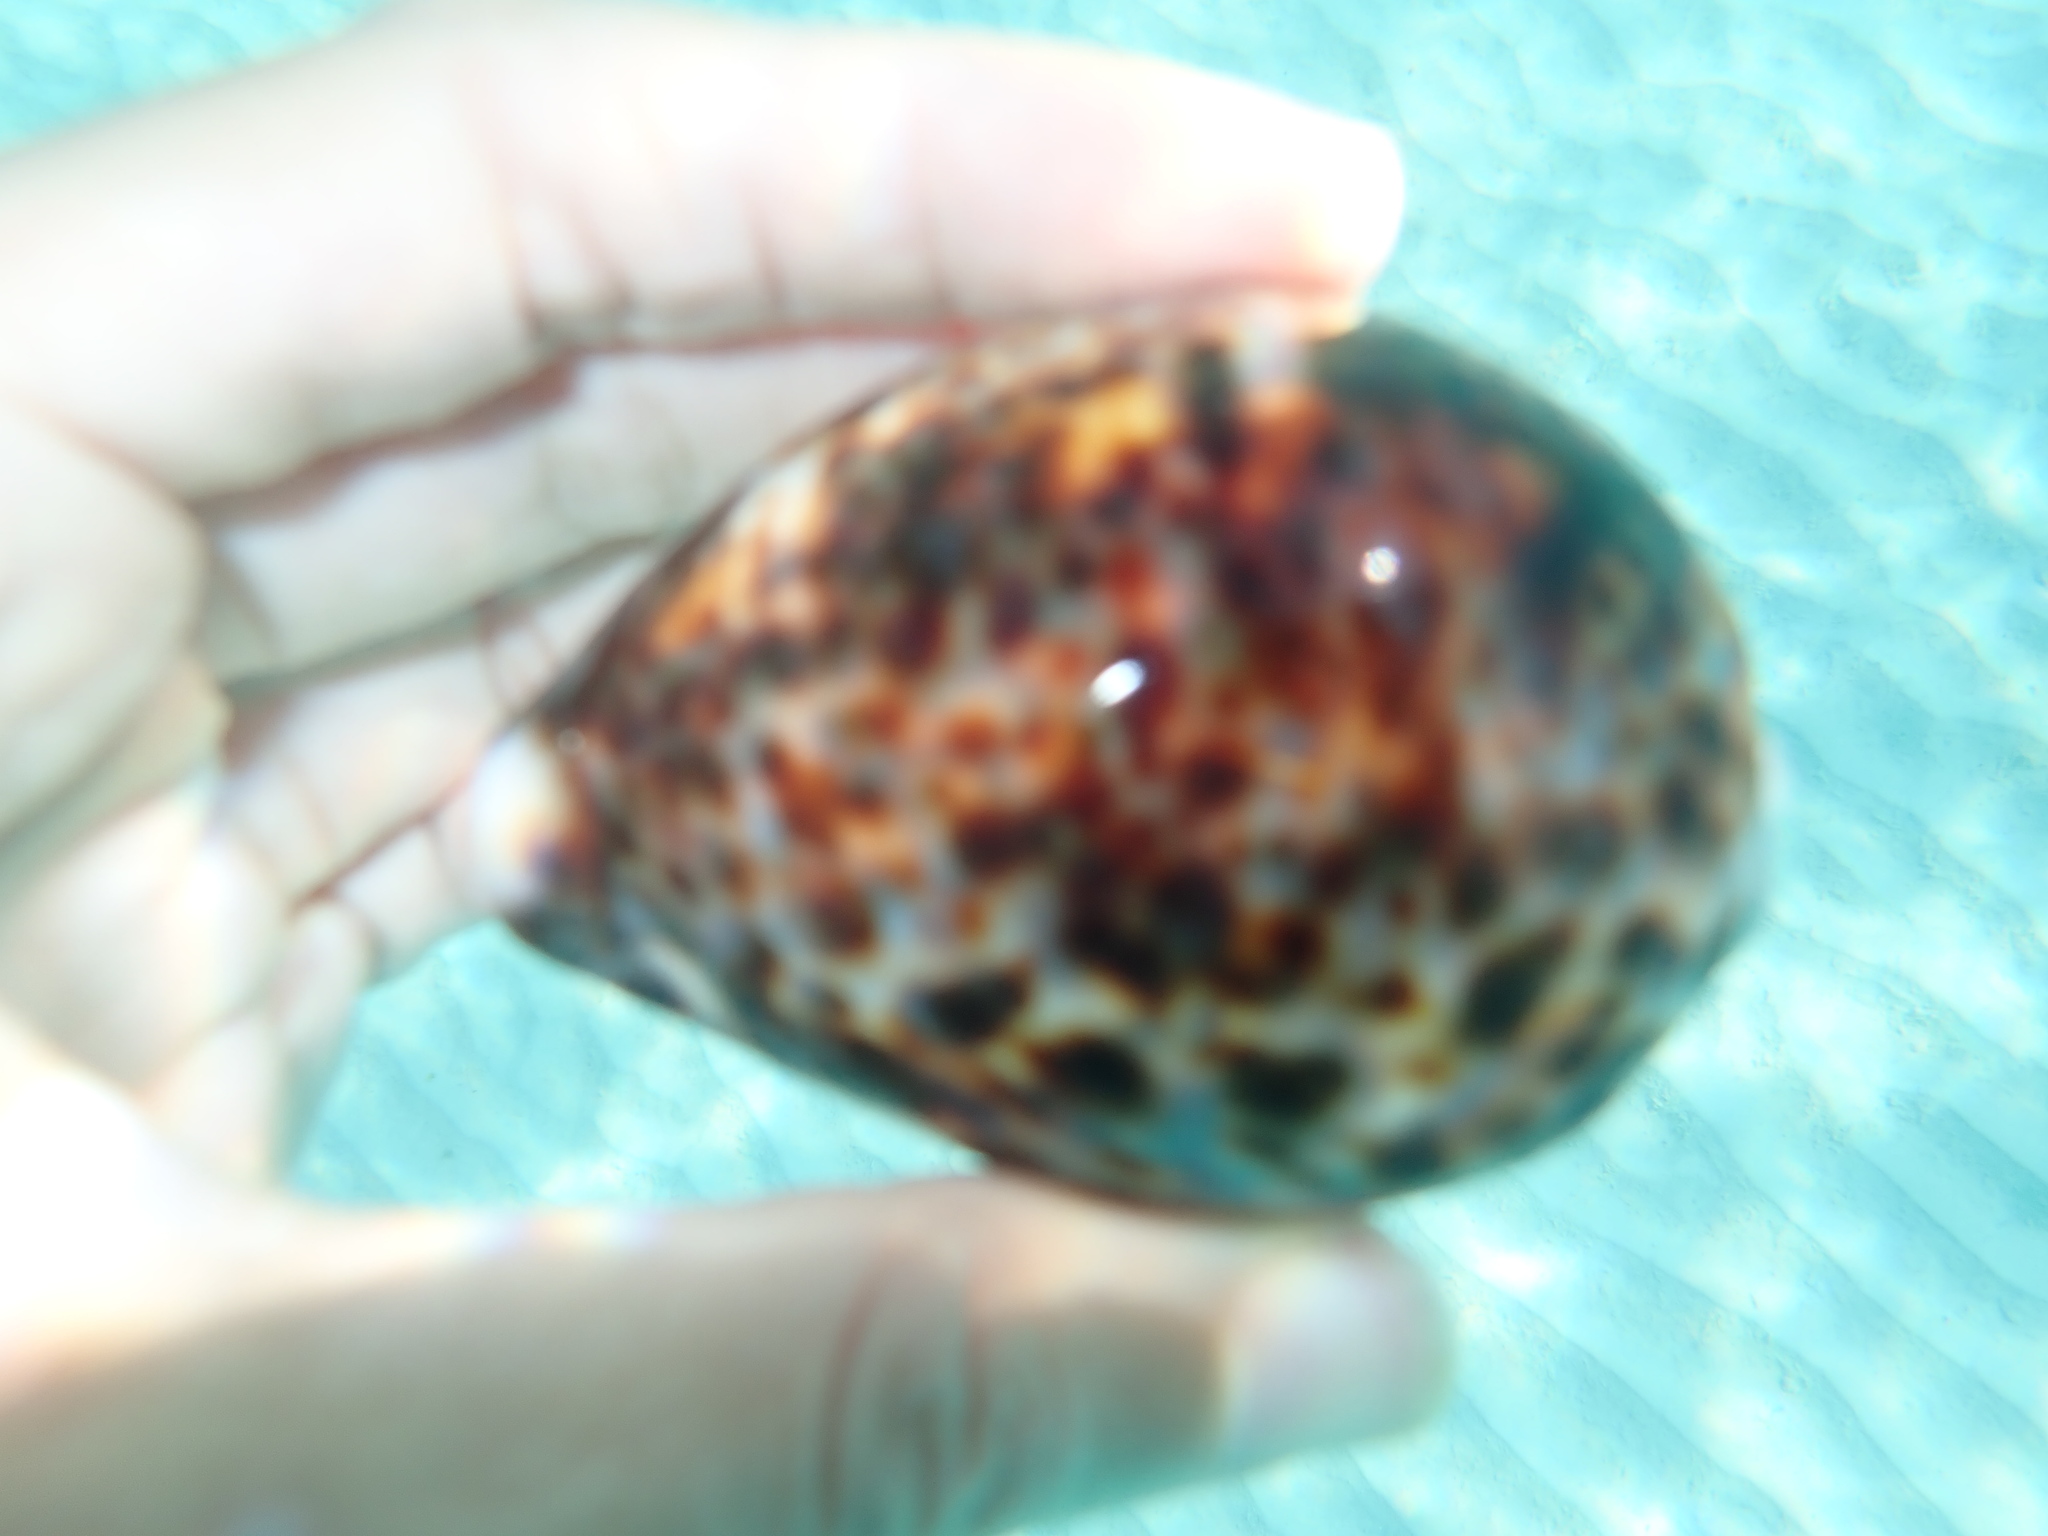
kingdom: Animalia
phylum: Mollusca
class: Gastropoda
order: Littorinimorpha
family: Cypraeidae
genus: Cypraea
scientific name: Cypraea tigris
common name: Tiger cowrie
